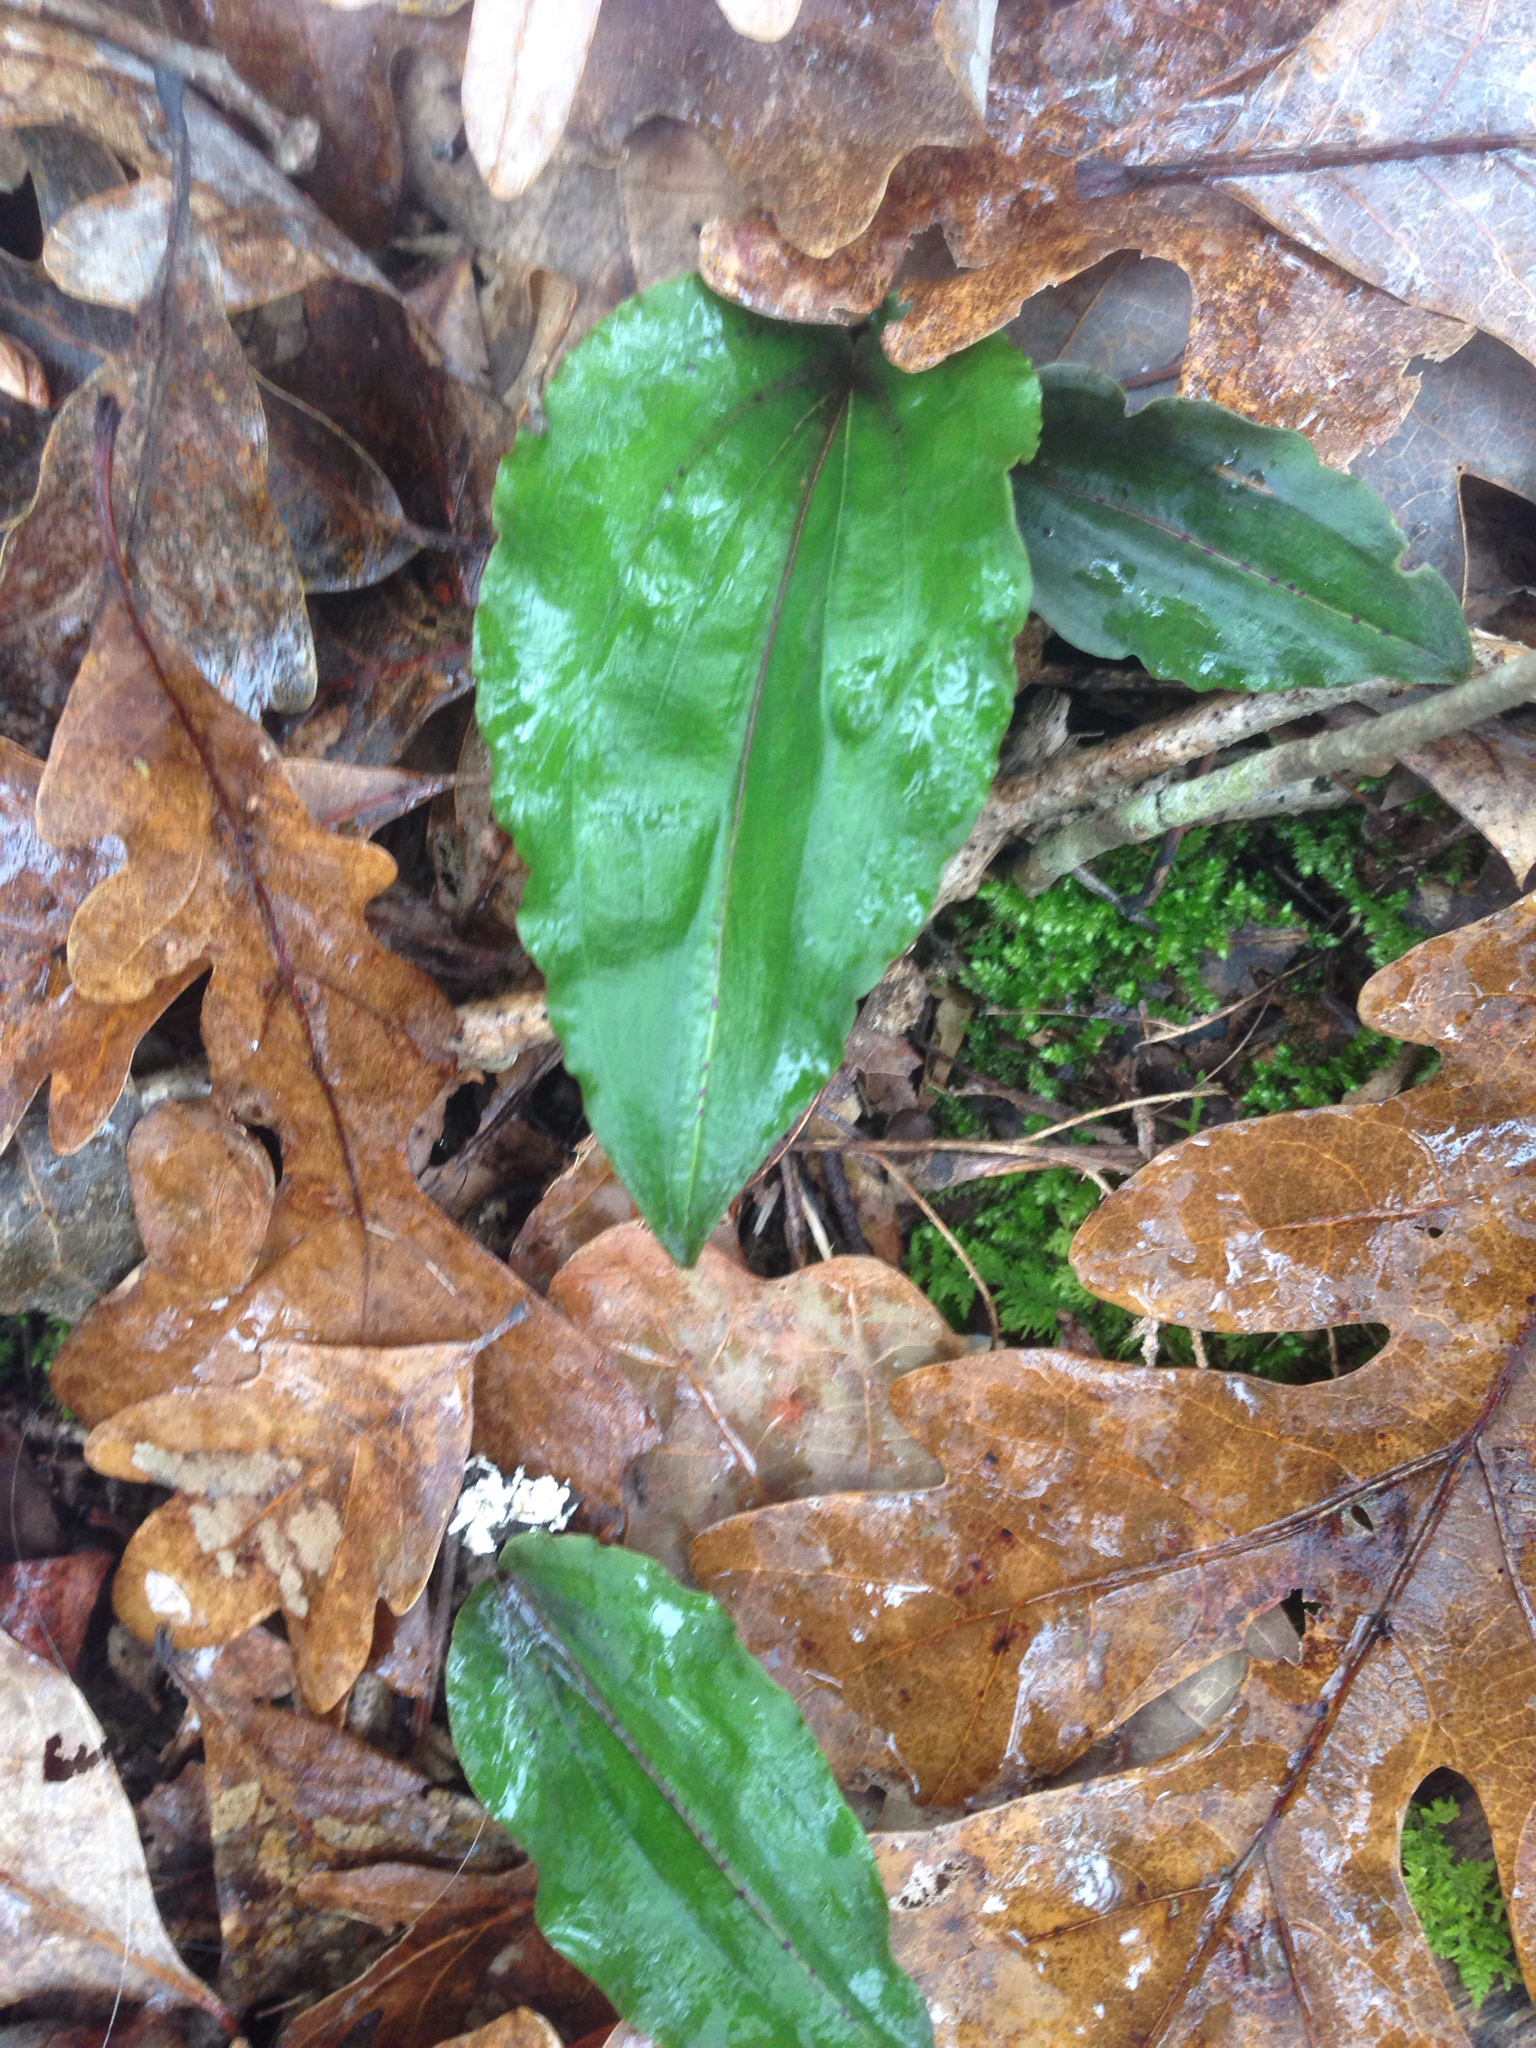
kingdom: Plantae
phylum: Tracheophyta
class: Liliopsida
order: Asparagales
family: Orchidaceae
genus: Tipularia
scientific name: Tipularia discolor
